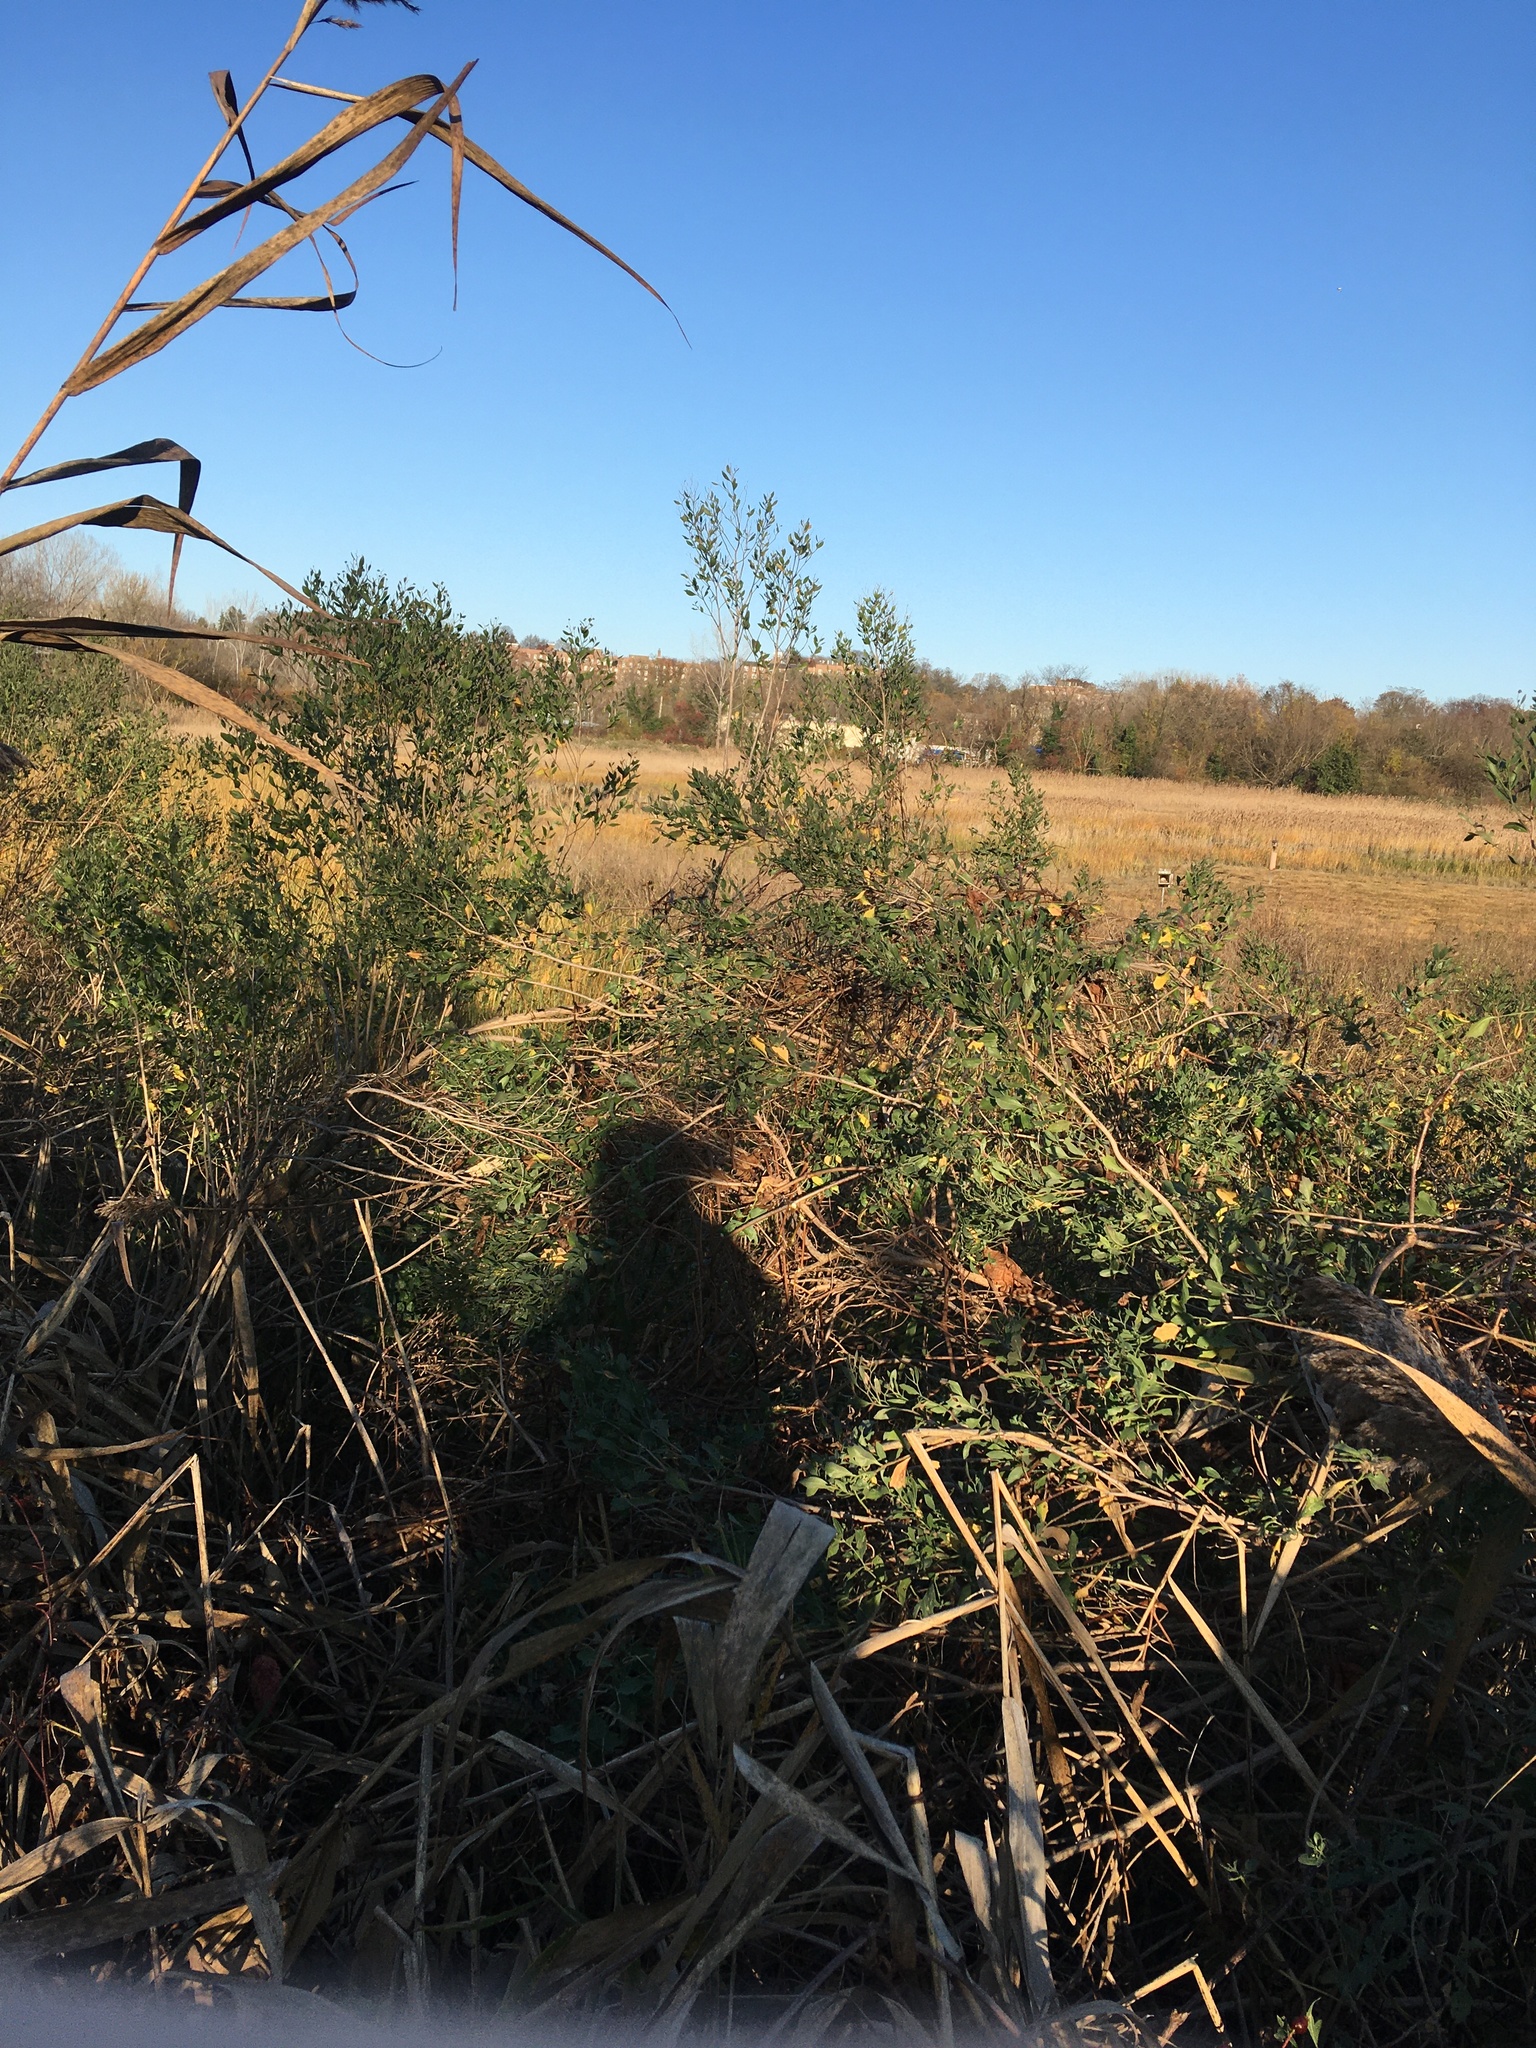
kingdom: Plantae
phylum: Tracheophyta
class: Magnoliopsida
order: Asterales
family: Asteraceae
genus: Baccharis
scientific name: Baccharis halimifolia
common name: Eastern baccharis
